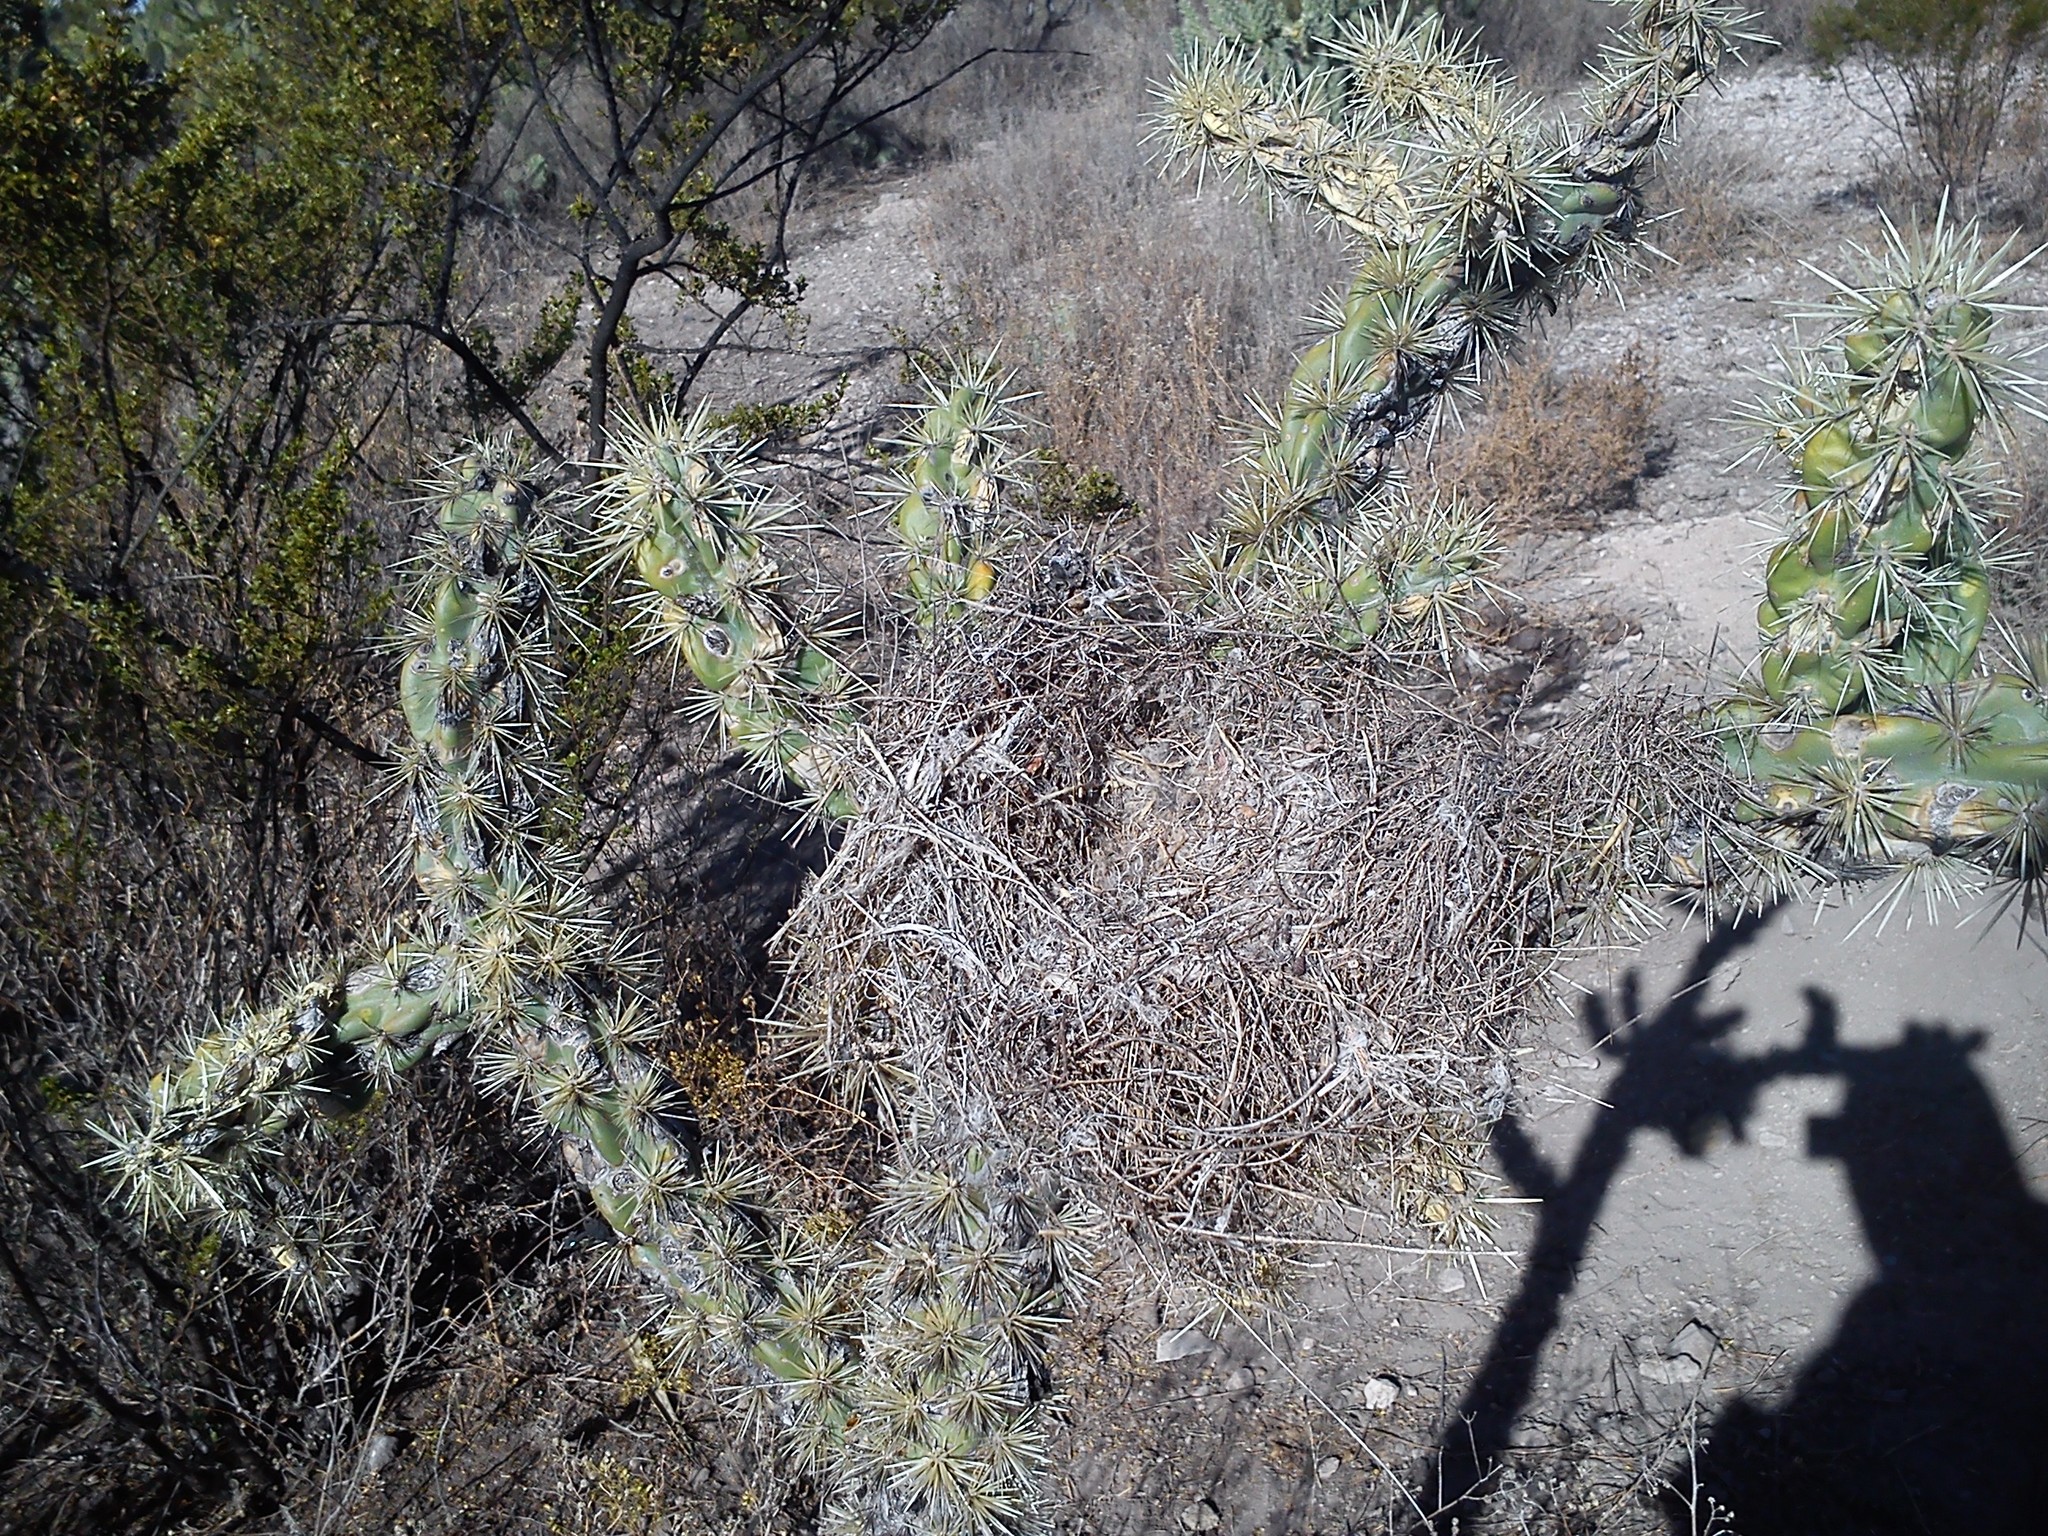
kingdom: Plantae
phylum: Tracheophyta
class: Magnoliopsida
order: Caryophyllales
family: Cactaceae
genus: Cylindropuntia
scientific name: Cylindropuntia imbricata
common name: Candelabrum cactus
